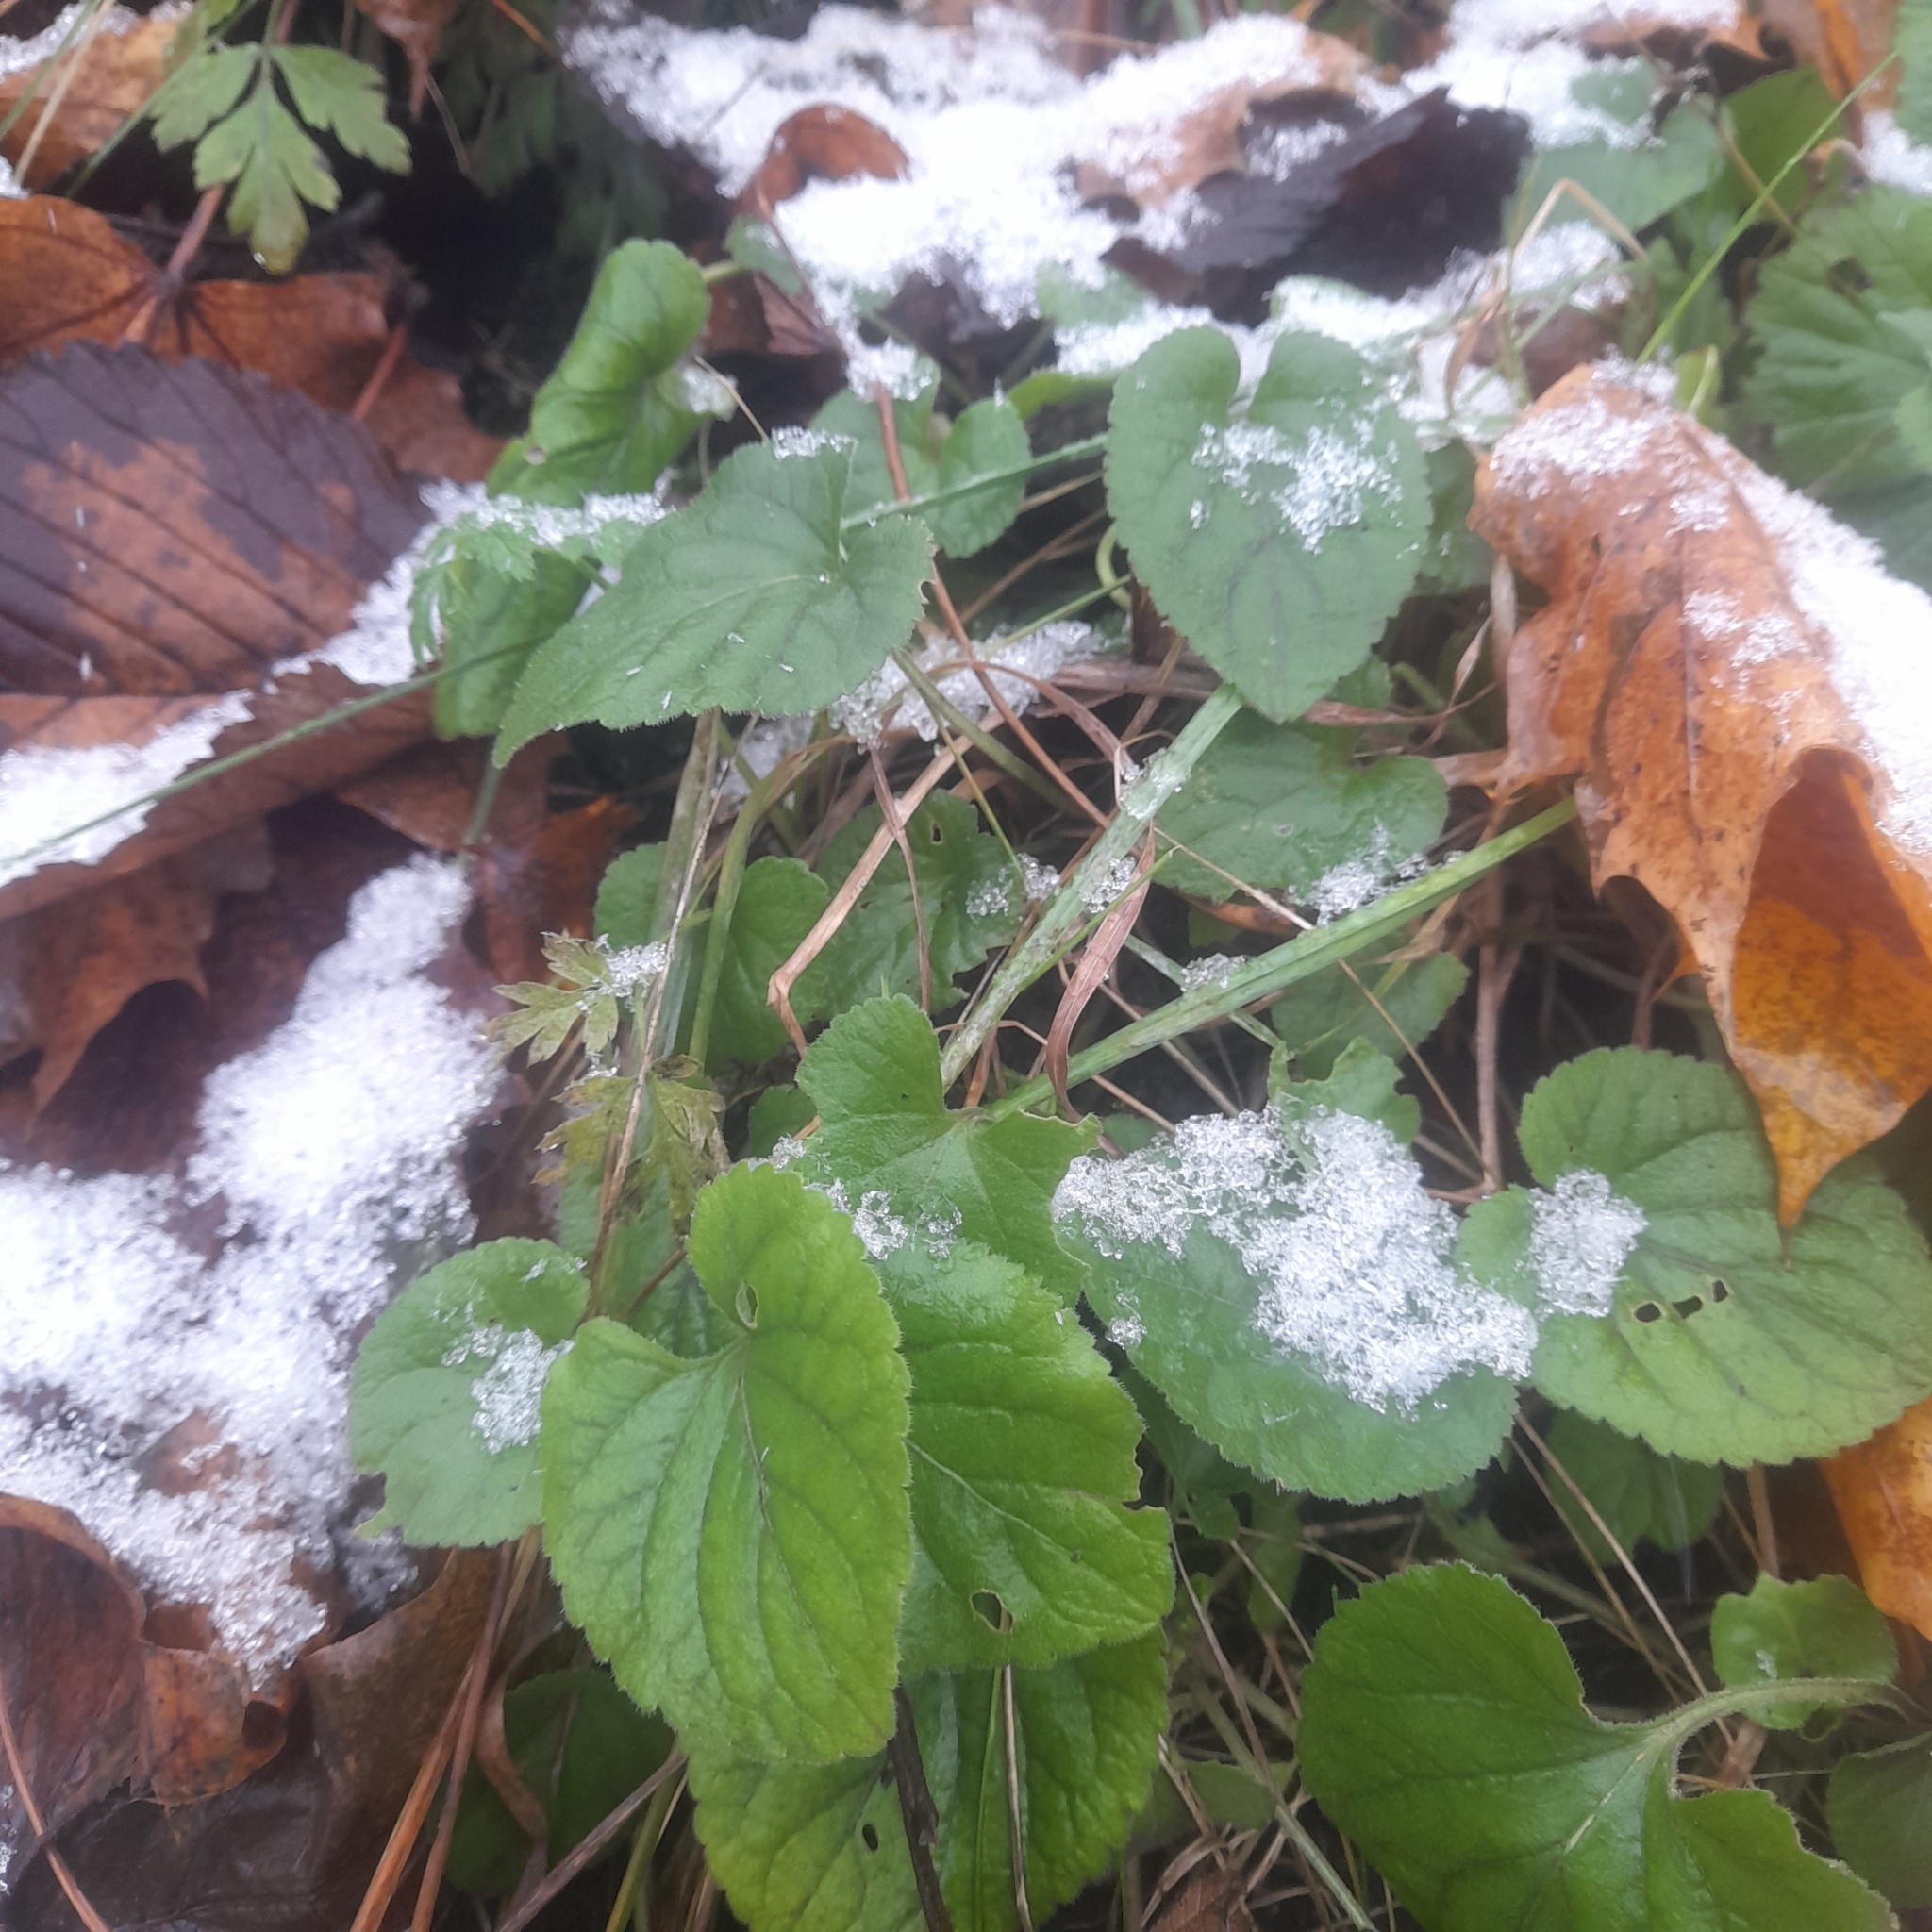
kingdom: Plantae
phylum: Tracheophyta
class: Magnoliopsida
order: Malpighiales
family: Violaceae
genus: Viola
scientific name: Viola odorata
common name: Sweet violet
